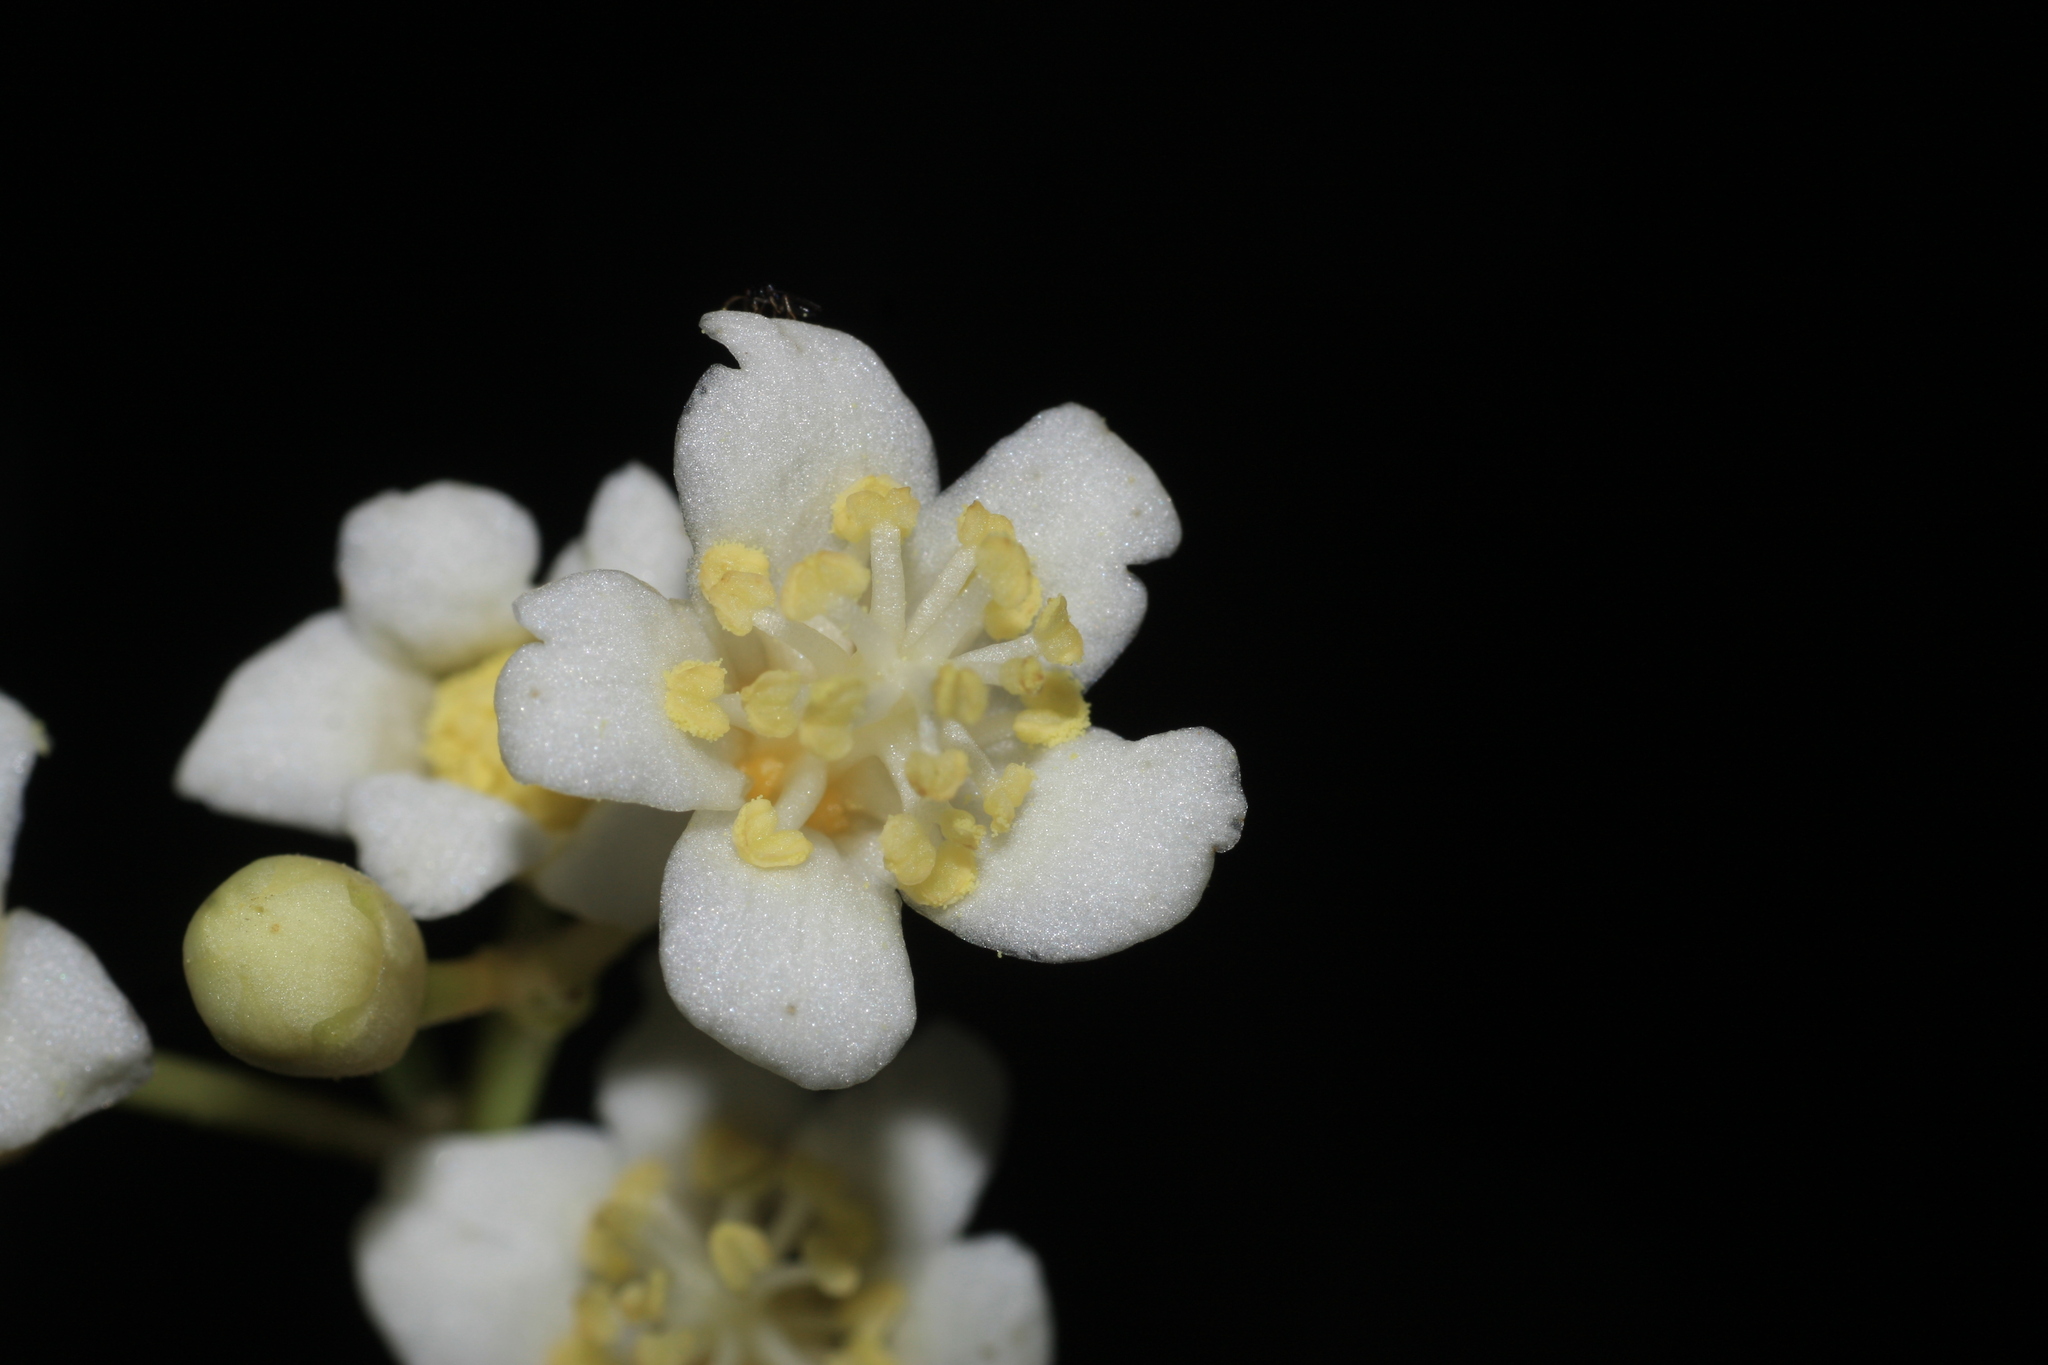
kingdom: Plantae
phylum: Tracheophyta
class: Magnoliopsida
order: Laurales
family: Lauraceae
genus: Beilschmiedia
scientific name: Beilschmiedia dalzellii
